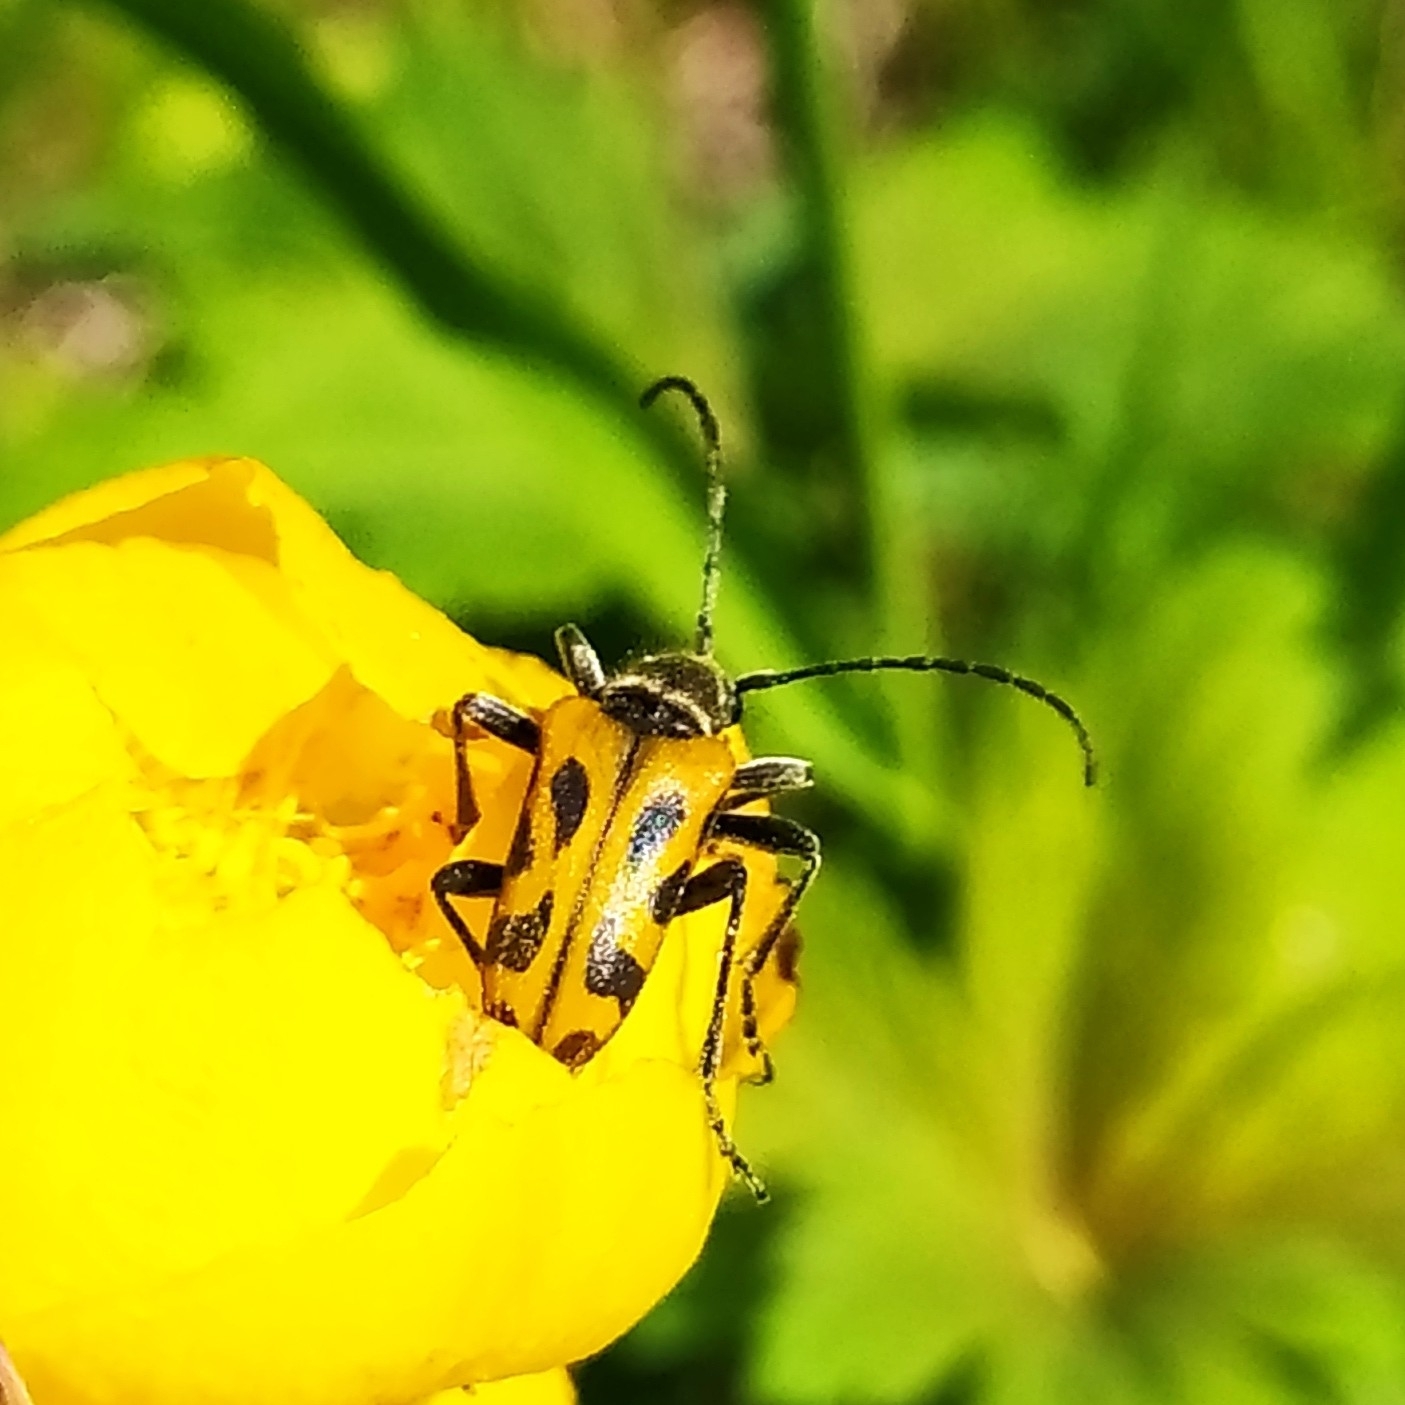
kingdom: Animalia
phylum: Arthropoda
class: Insecta
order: Coleoptera
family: Cerambycidae
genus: Brachyta
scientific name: Brachyta interrogationis
